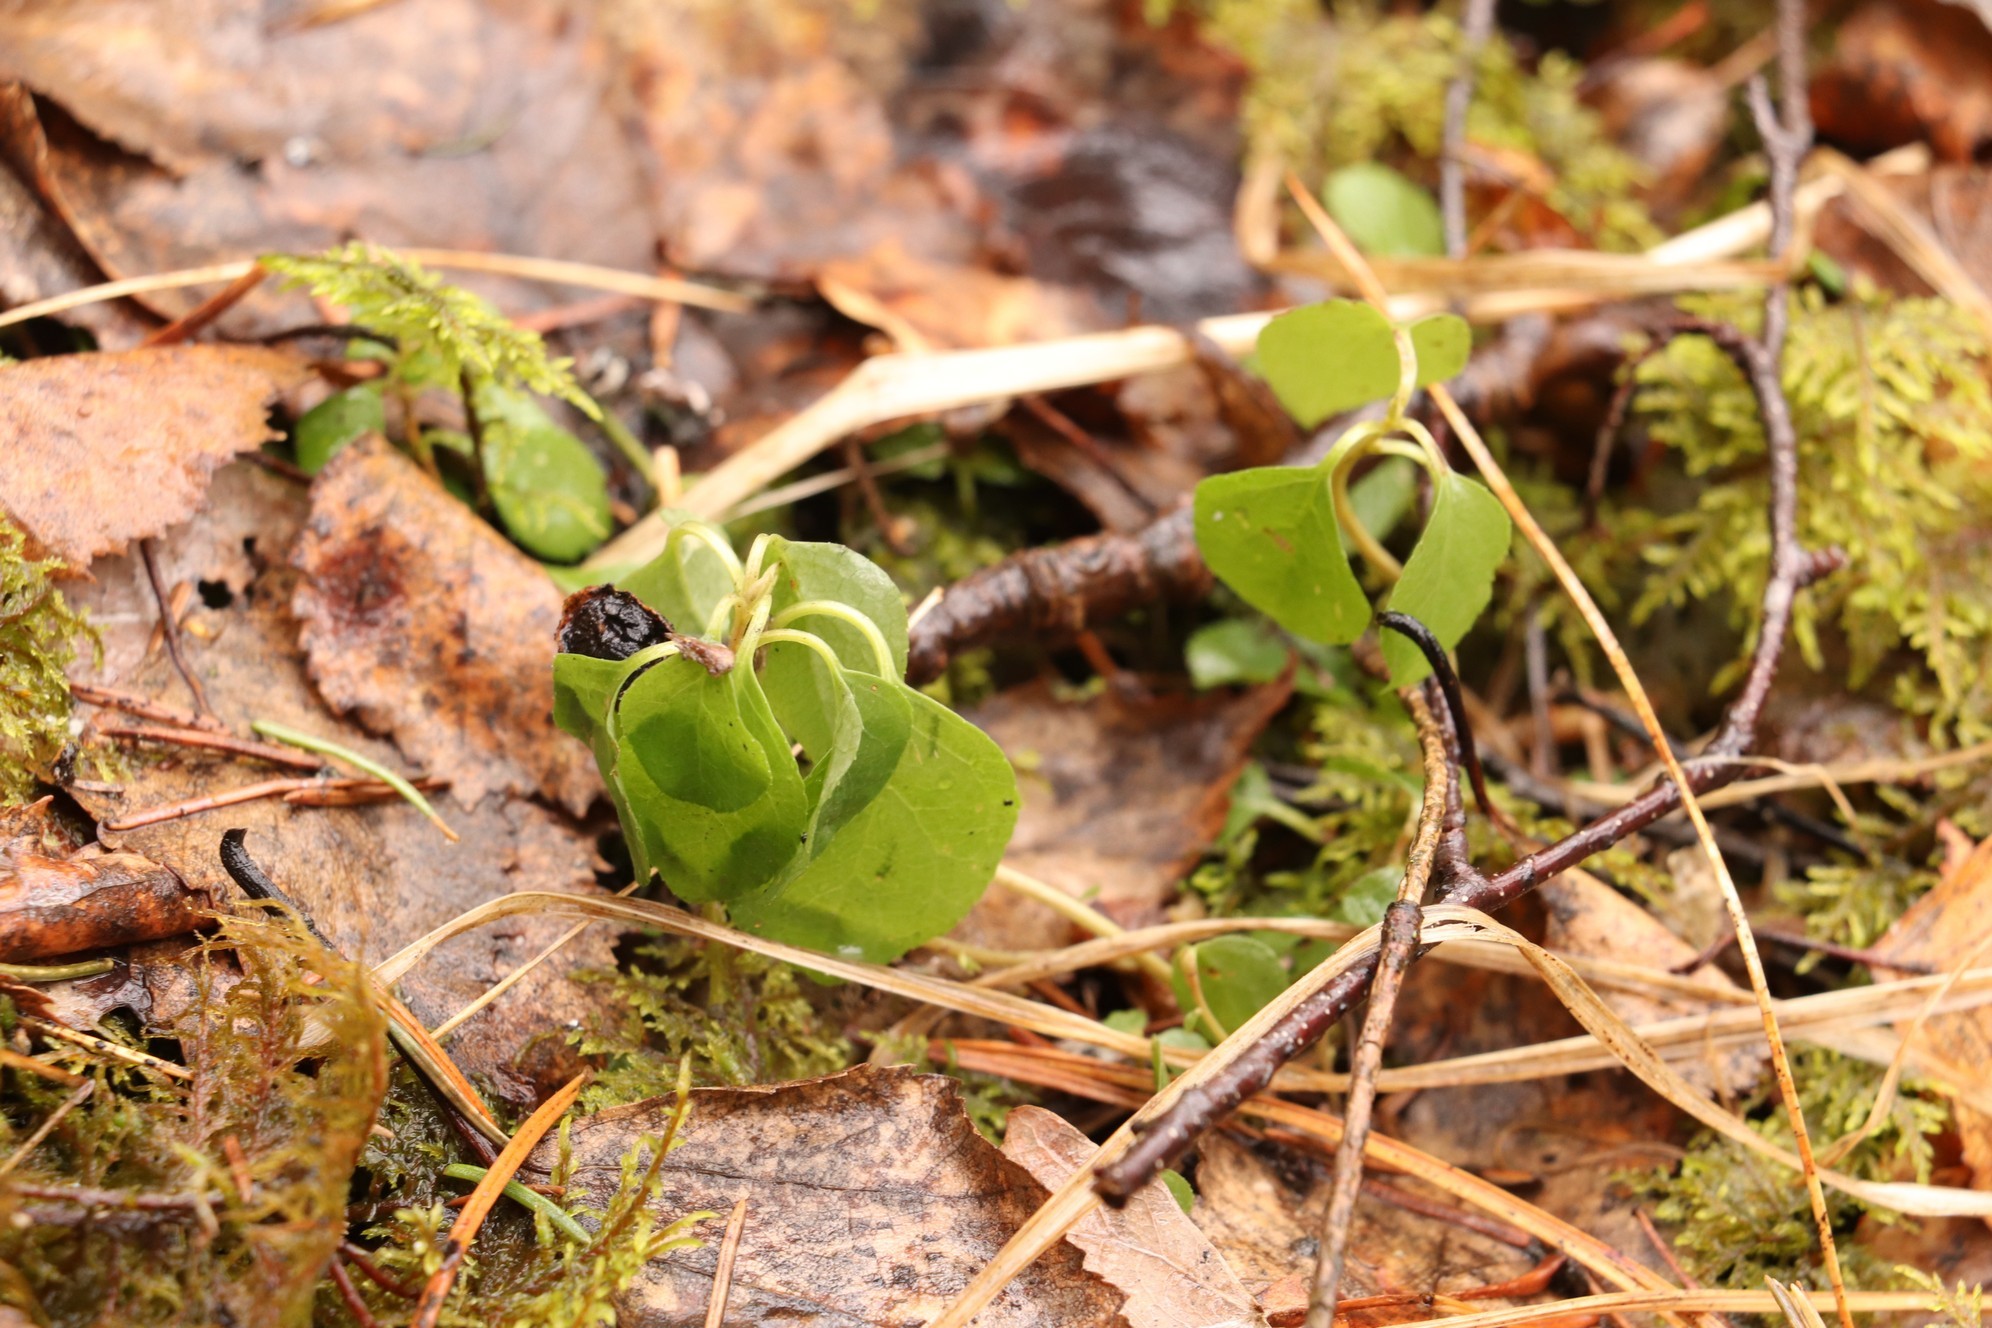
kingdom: Plantae
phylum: Tracheophyta
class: Magnoliopsida
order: Ericales
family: Ericaceae
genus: Orthilia
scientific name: Orthilia secunda
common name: One-sided orthilia
